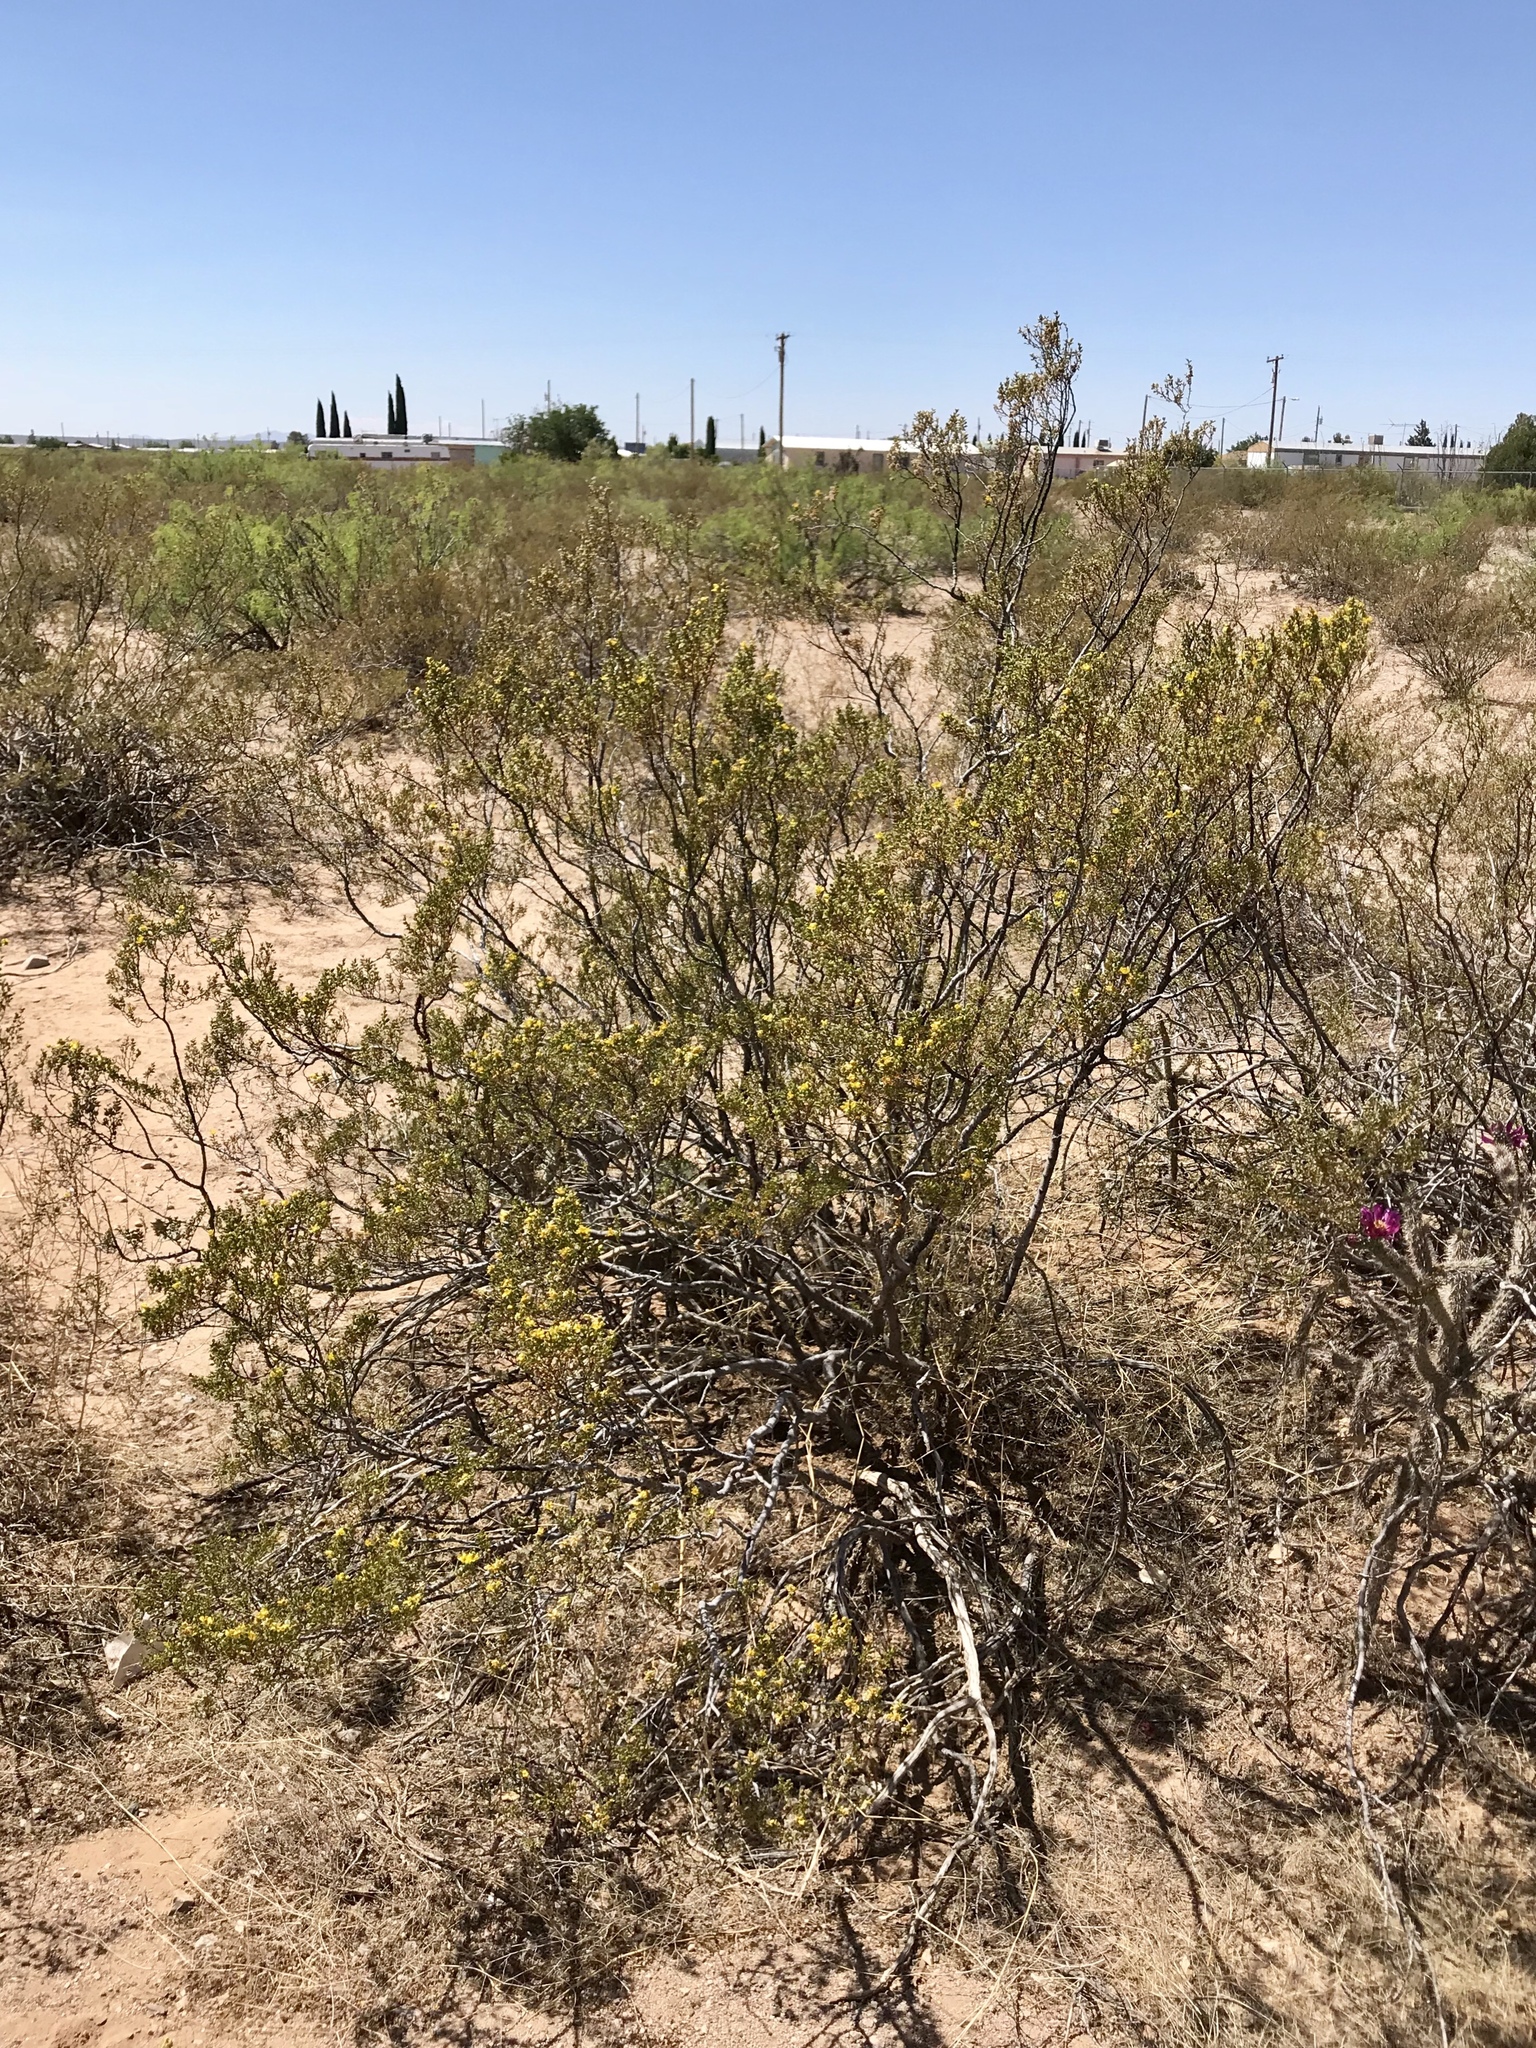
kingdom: Plantae
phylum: Tracheophyta
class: Magnoliopsida
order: Zygophyllales
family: Zygophyllaceae
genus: Larrea
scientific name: Larrea tridentata
